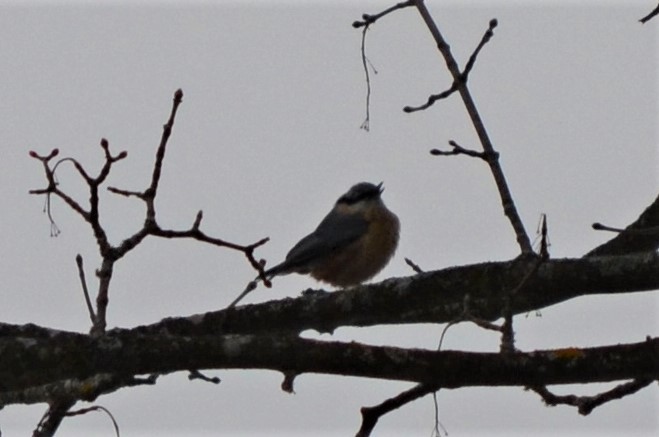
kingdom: Animalia
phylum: Chordata
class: Aves
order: Passeriformes
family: Sittidae
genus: Sitta
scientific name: Sitta europaea
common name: Eurasian nuthatch
